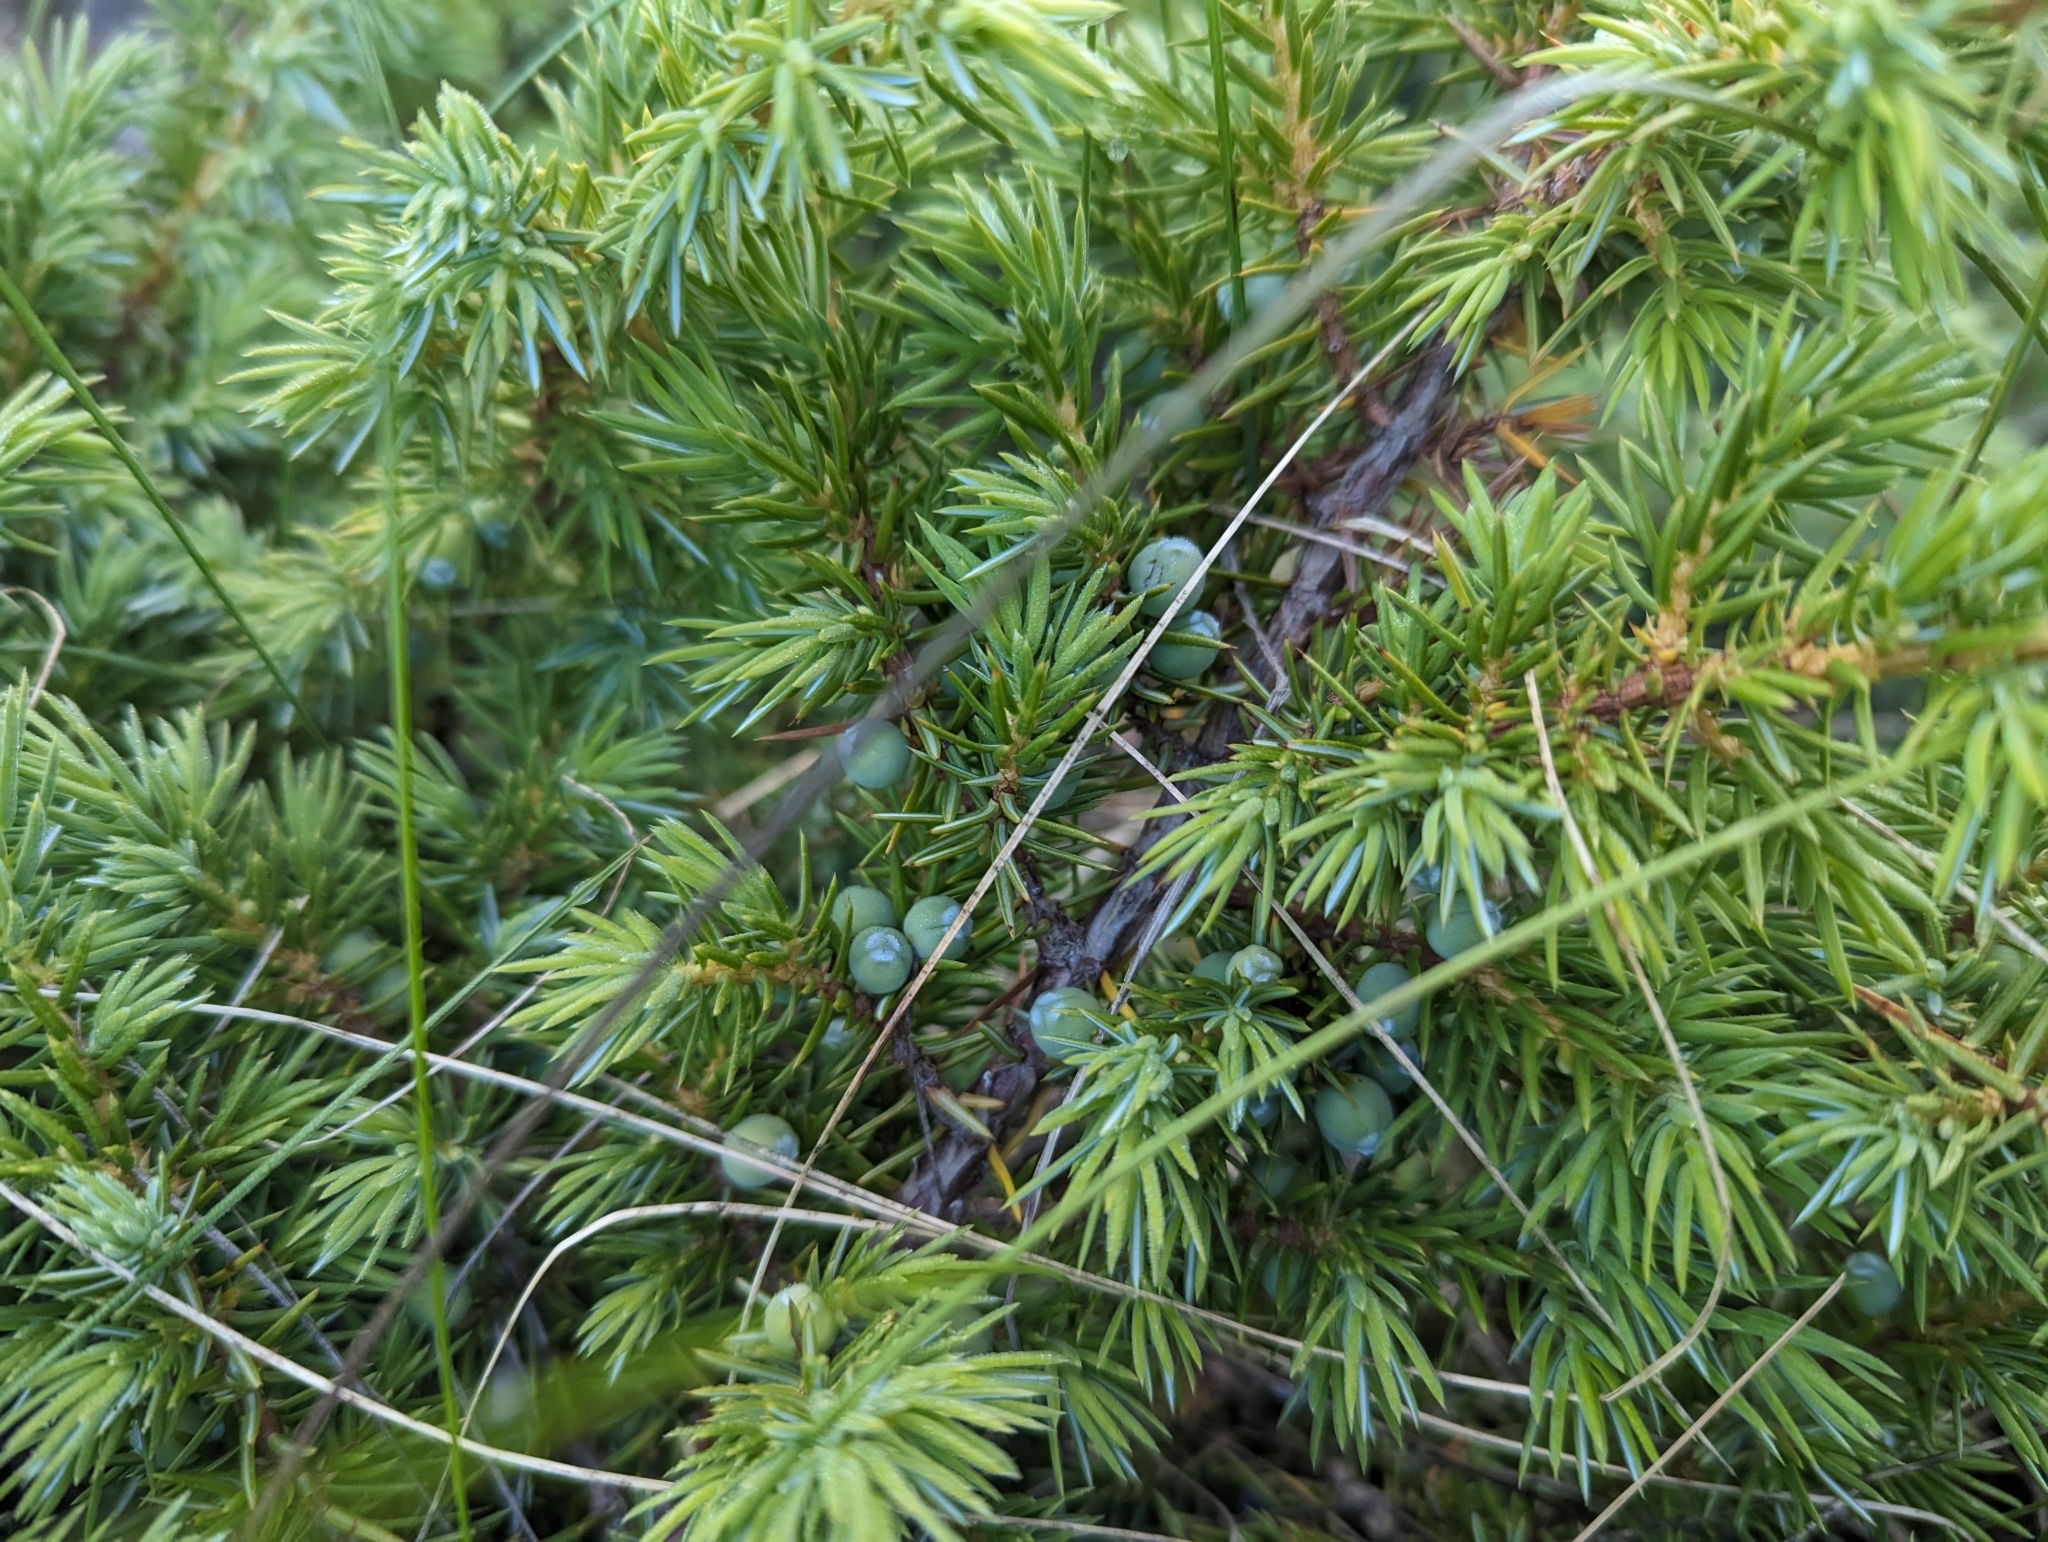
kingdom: Plantae
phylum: Tracheophyta
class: Pinopsida
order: Pinales
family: Cupressaceae
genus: Juniperus
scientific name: Juniperus communis
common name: Common juniper
